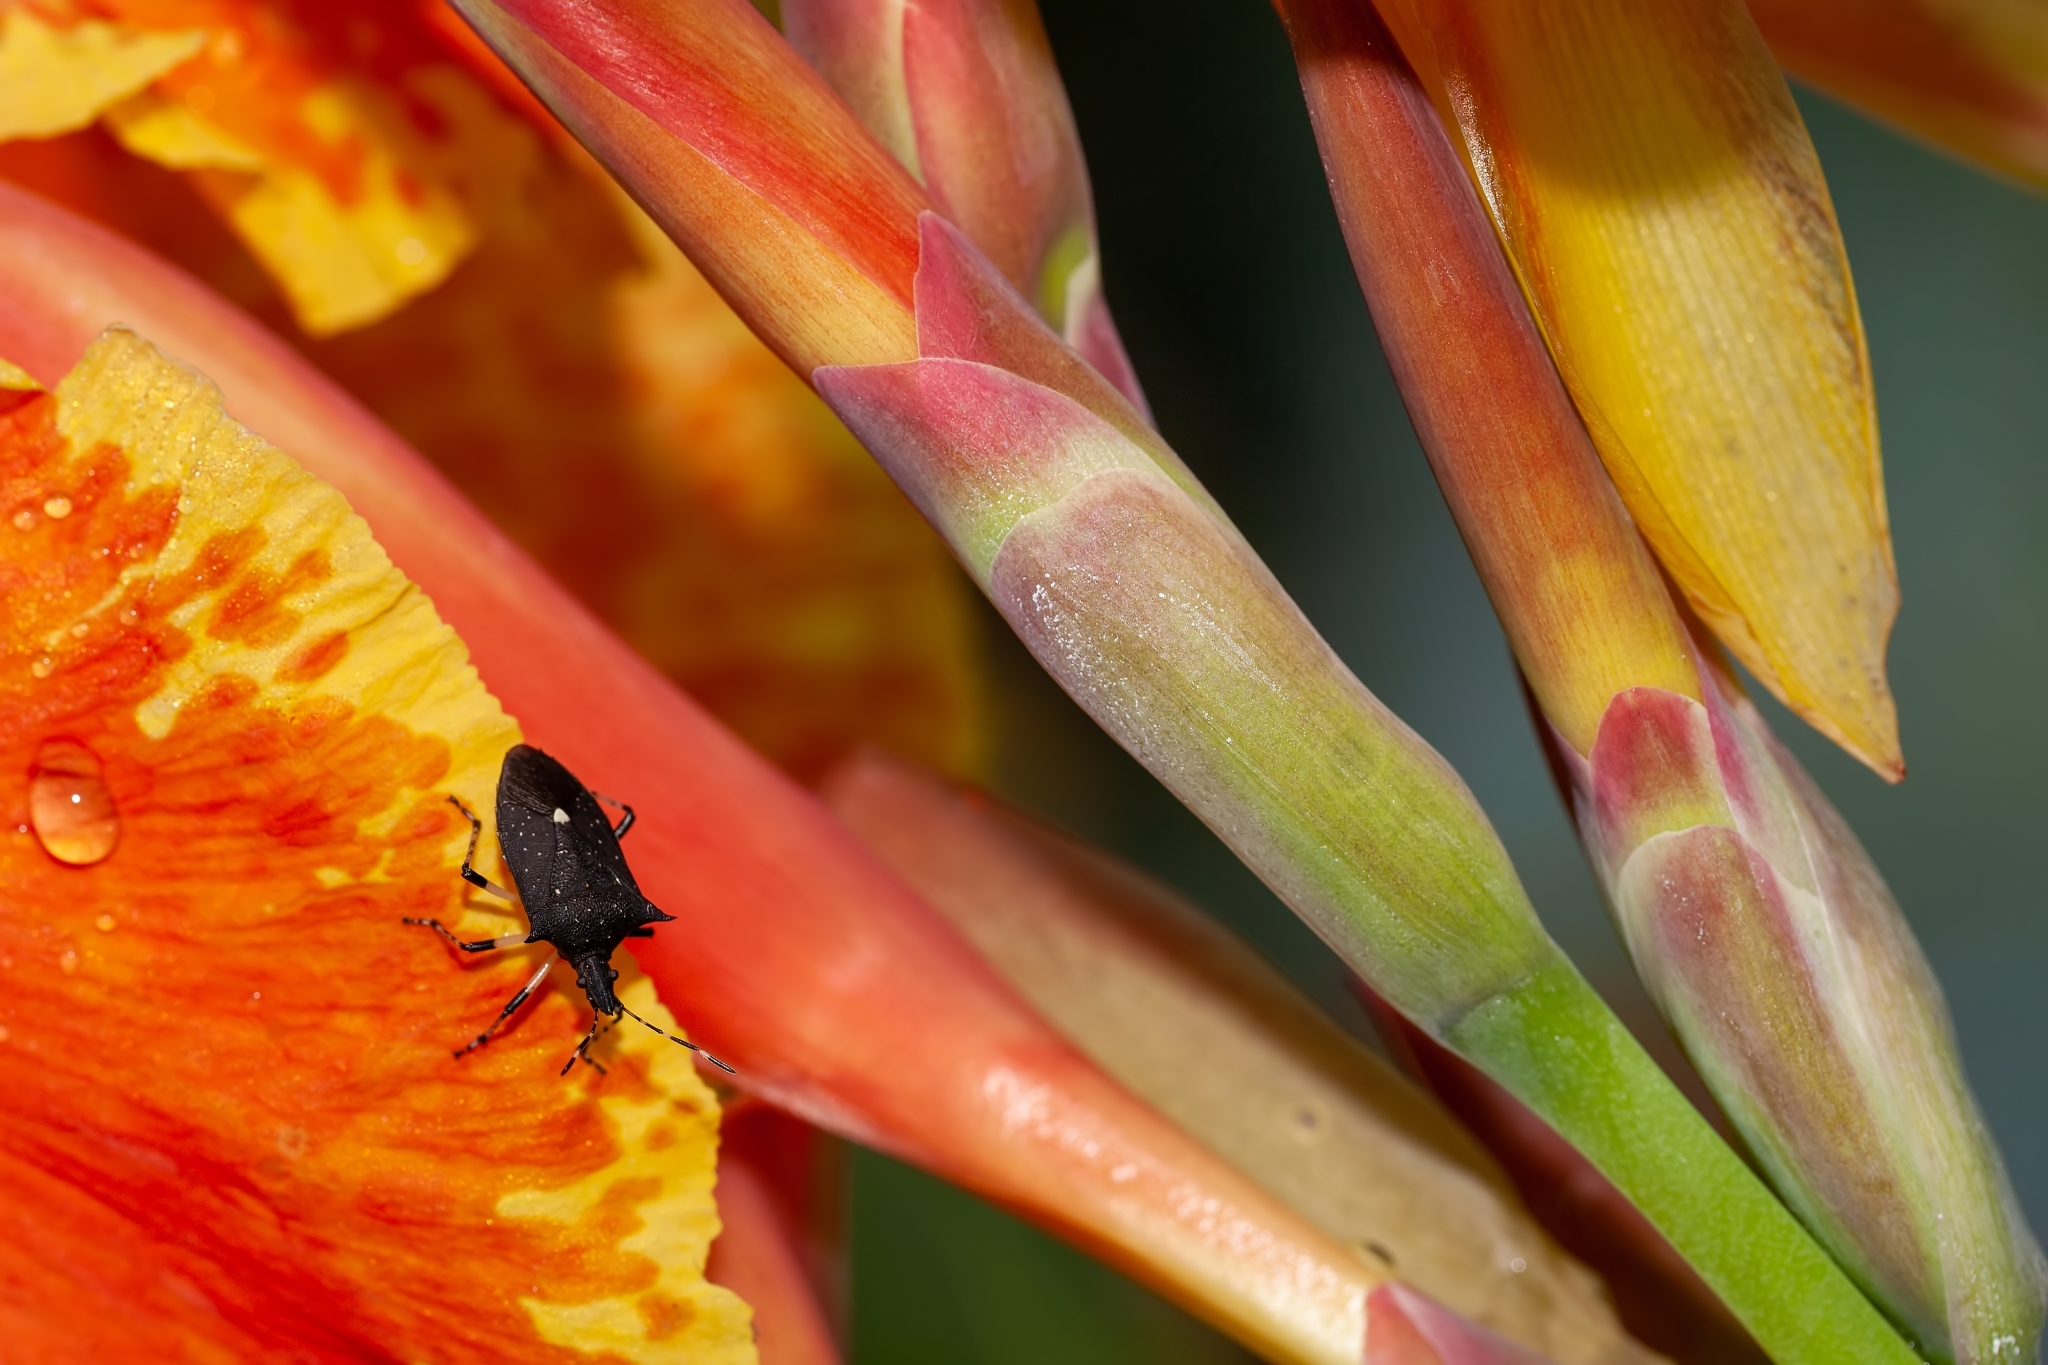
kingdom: Animalia
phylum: Arthropoda
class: Insecta
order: Hemiptera
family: Pentatomidae
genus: Proxys
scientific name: Proxys punctulatus
